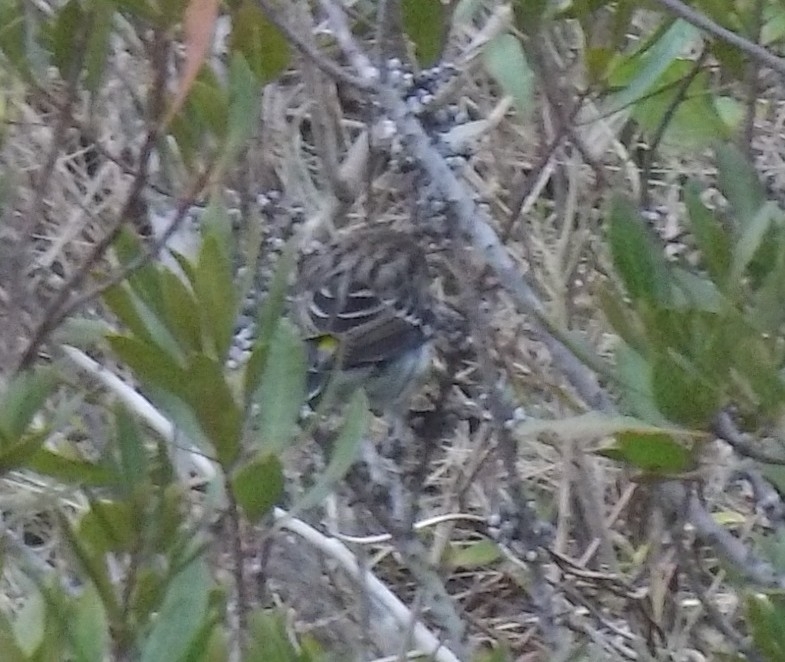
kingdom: Animalia
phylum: Chordata
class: Aves
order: Passeriformes
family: Parulidae
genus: Setophaga
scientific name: Setophaga coronata
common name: Myrtle warbler
